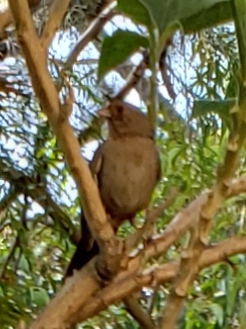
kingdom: Animalia
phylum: Chordata
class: Aves
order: Passeriformes
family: Passerellidae
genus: Melozone
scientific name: Melozone crissalis
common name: California towhee
